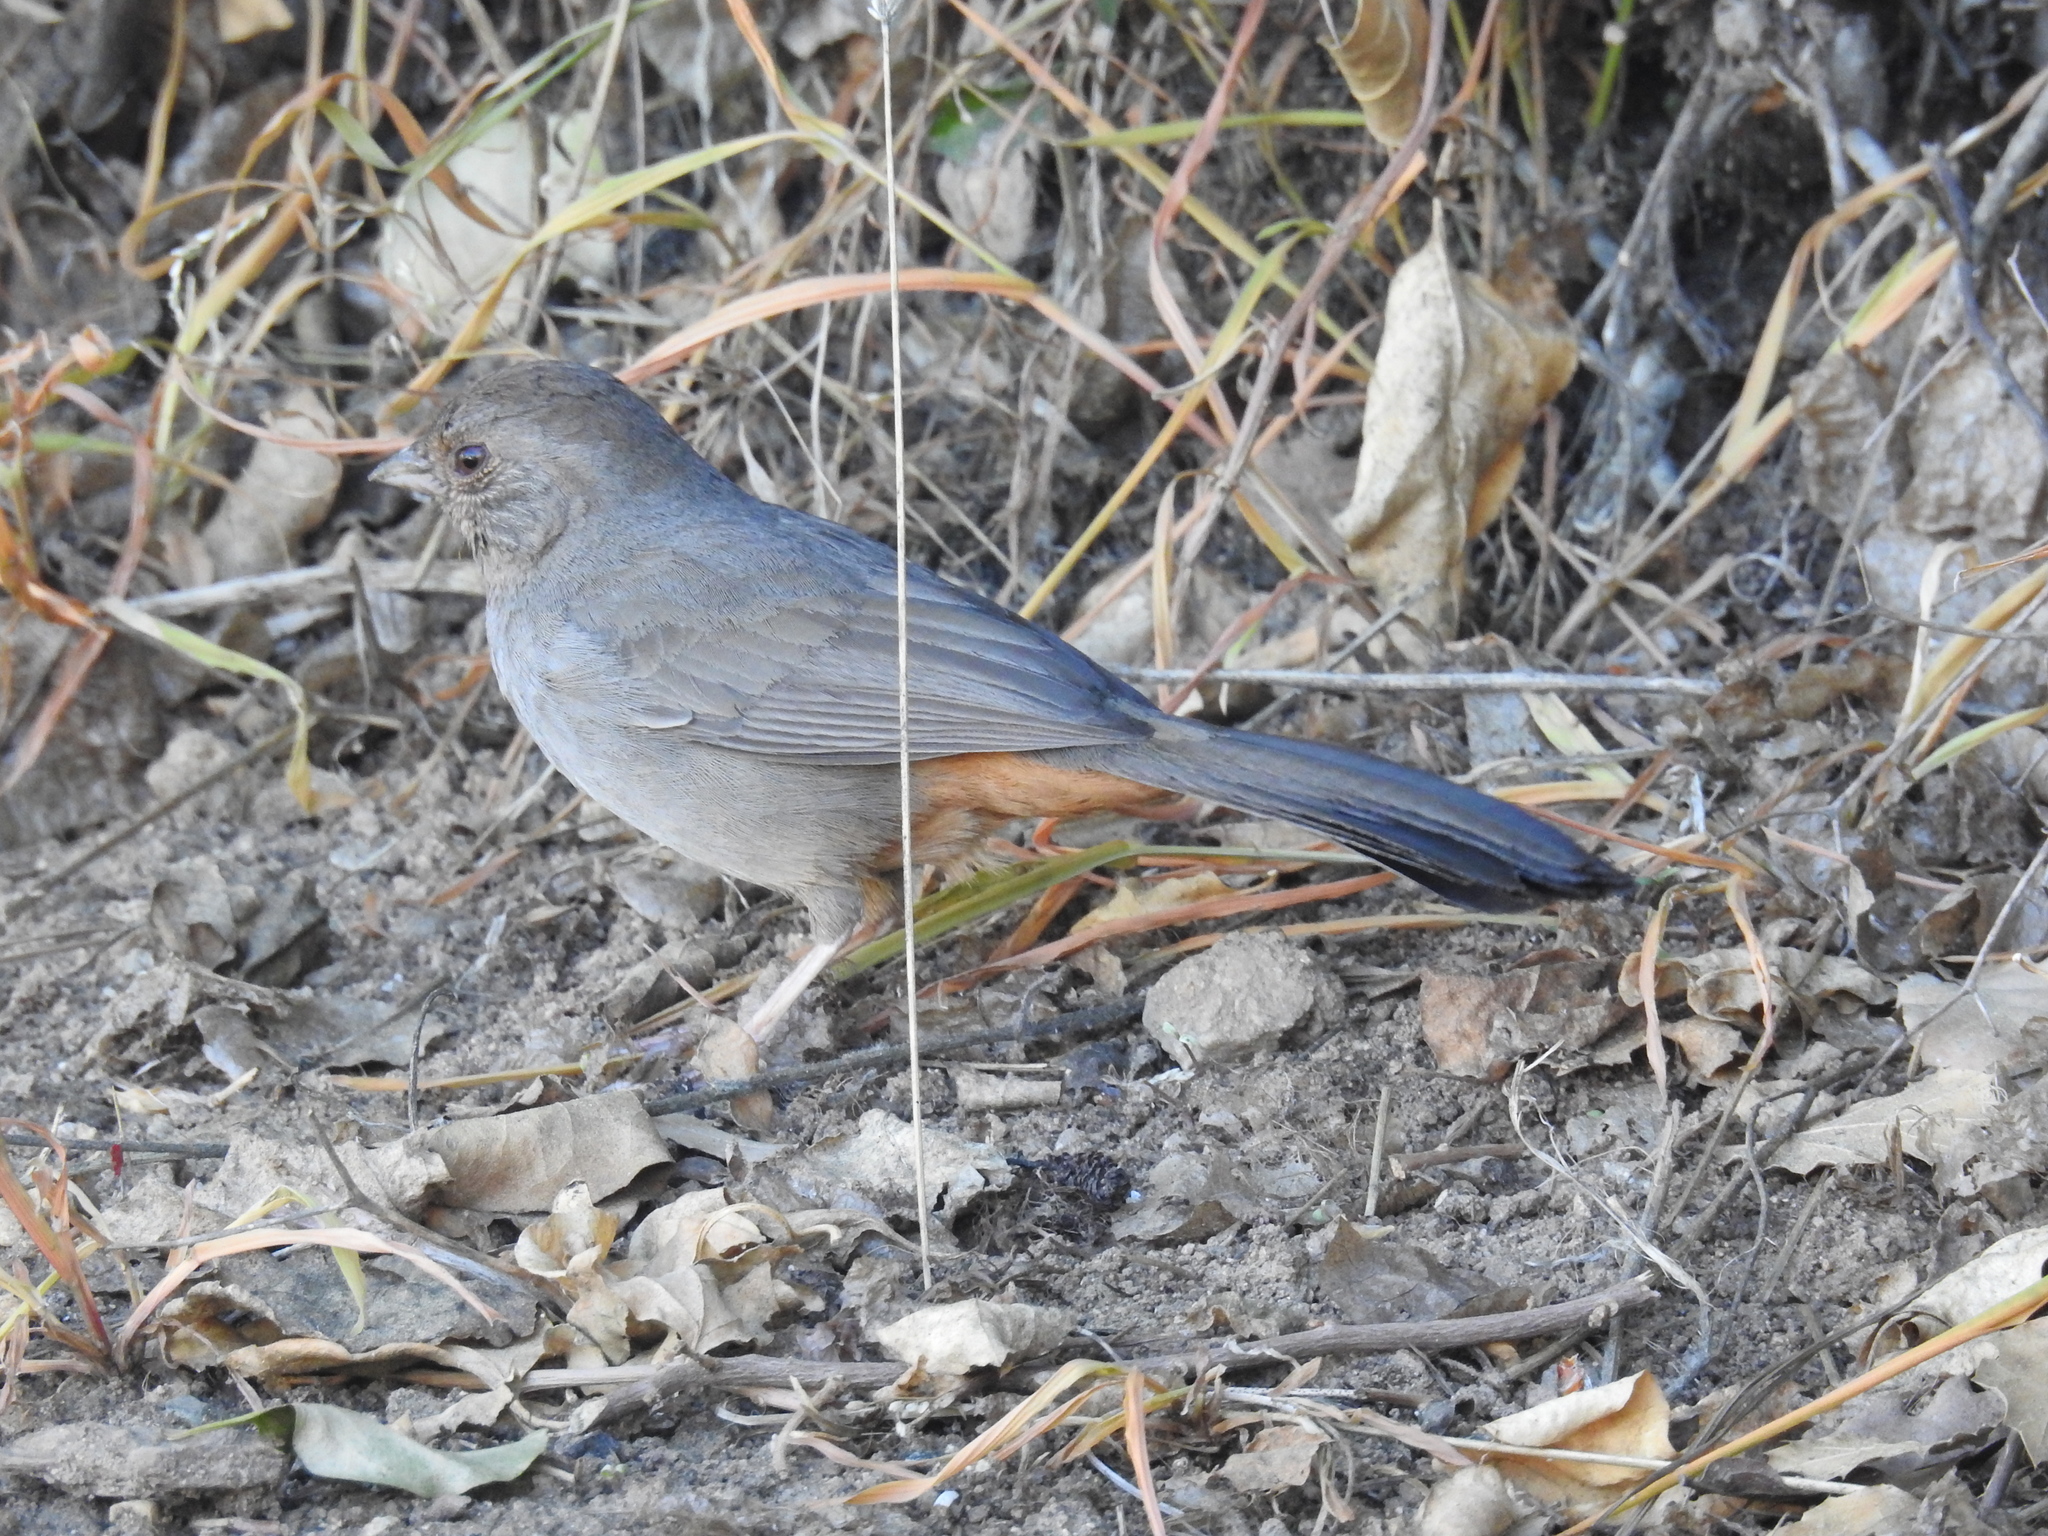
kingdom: Animalia
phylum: Chordata
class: Aves
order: Passeriformes
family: Passerellidae
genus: Melozone
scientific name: Melozone crissalis
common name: California towhee
